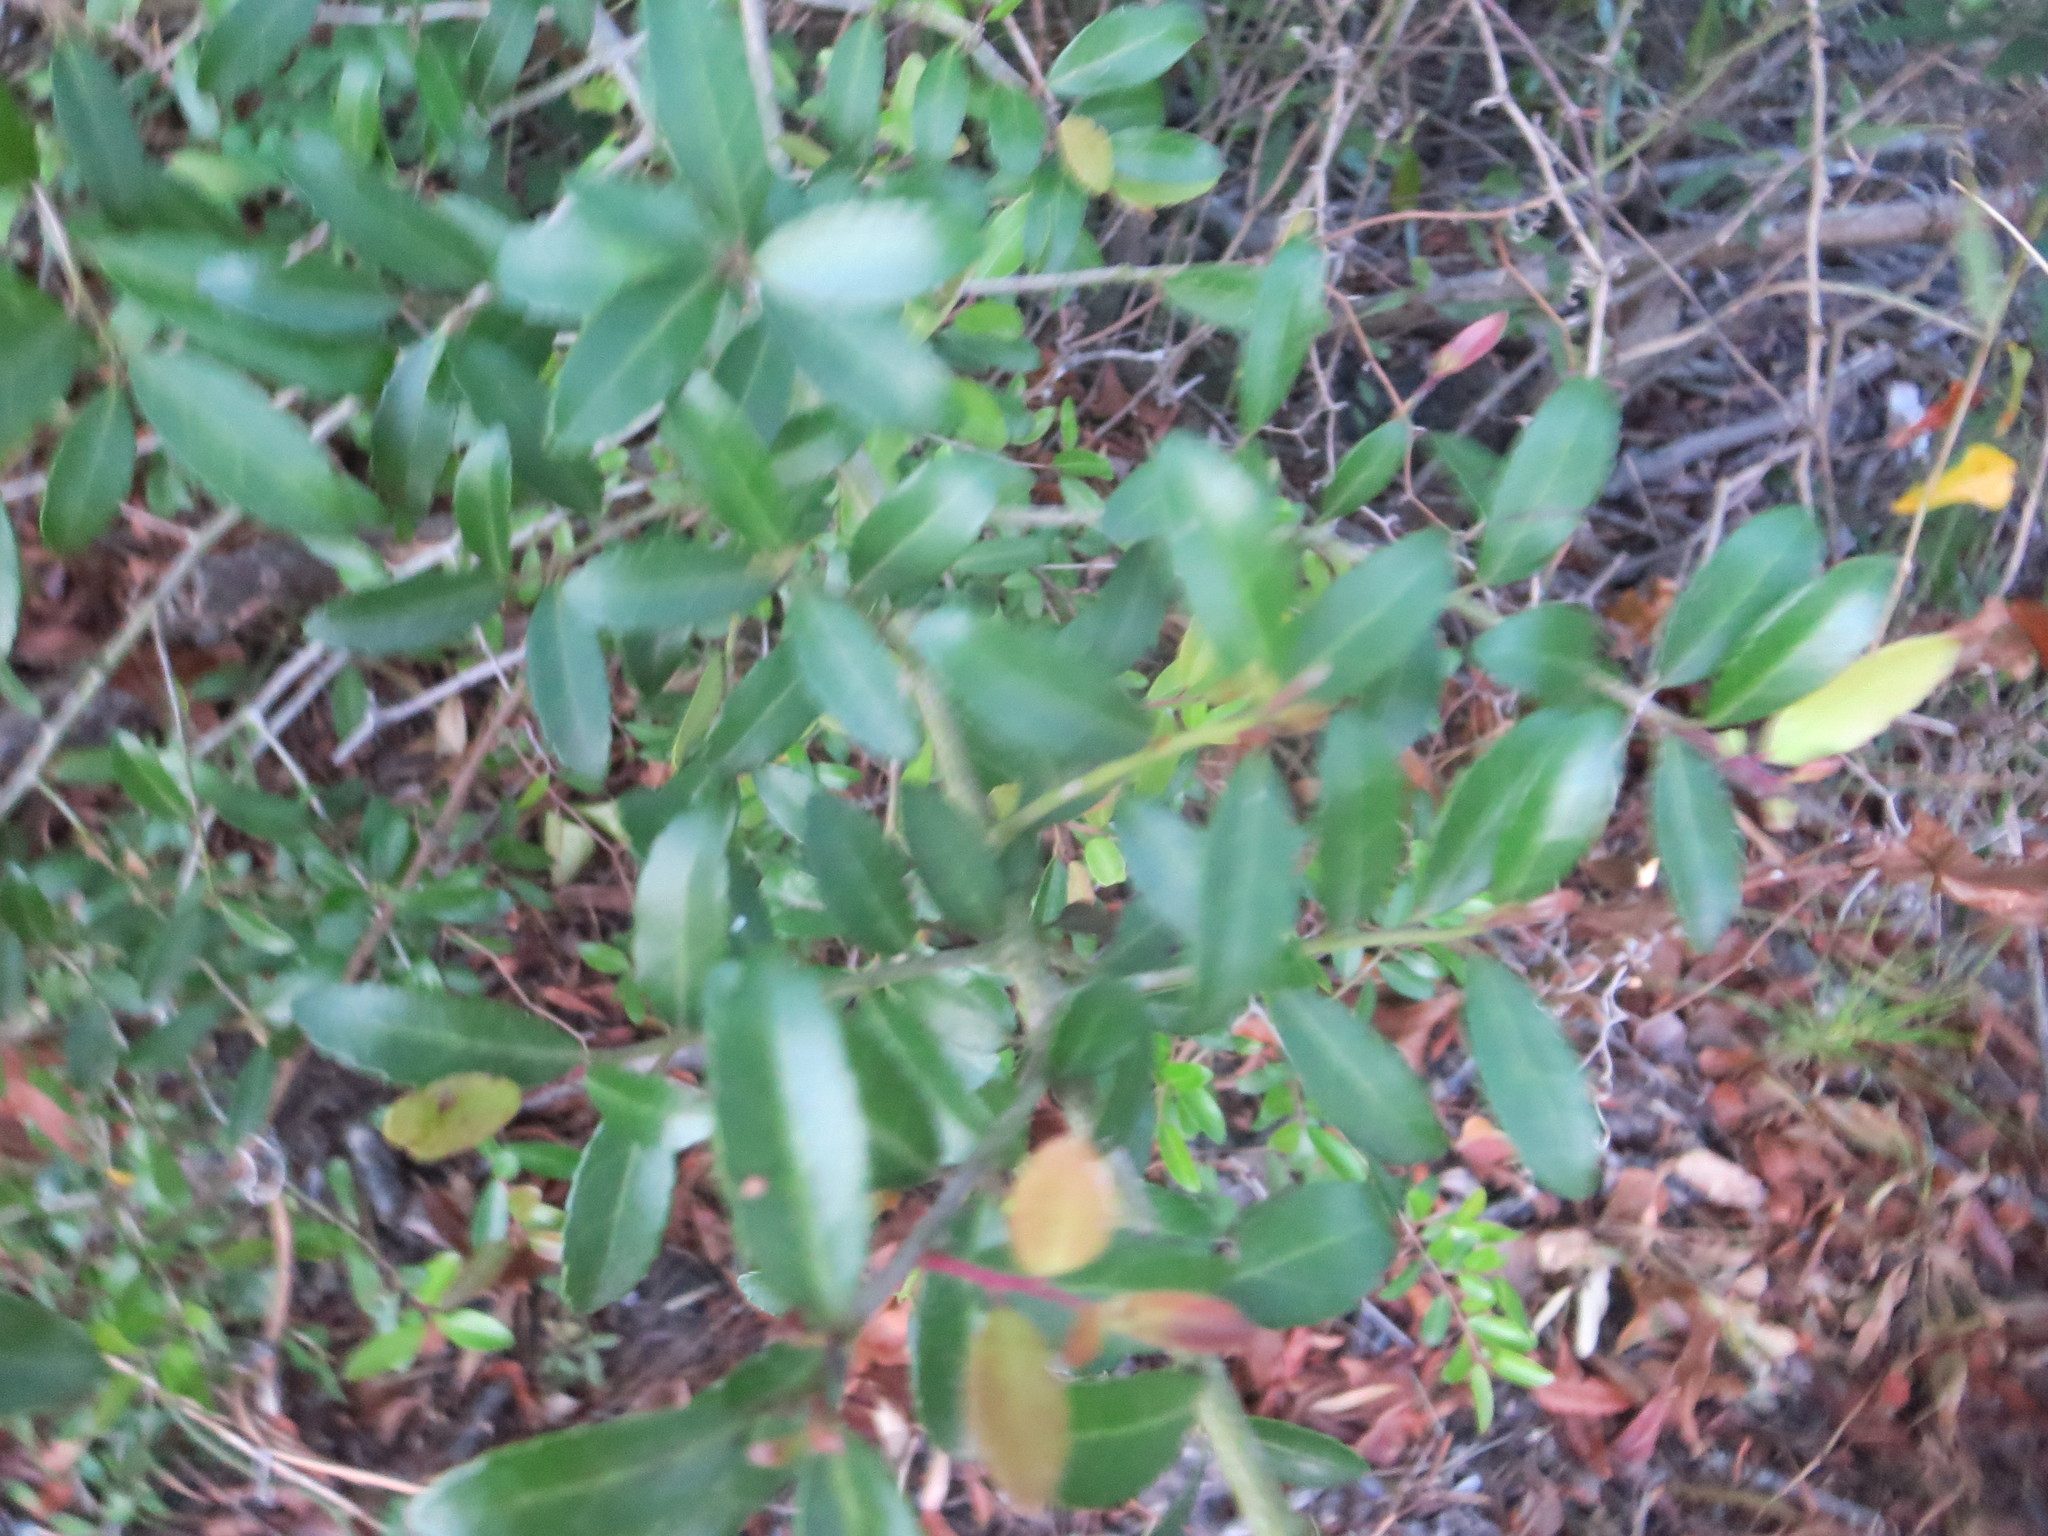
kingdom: Plantae
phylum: Tracheophyta
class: Magnoliopsida
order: Aquifoliales
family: Aquifoliaceae
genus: Ilex
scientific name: Ilex vomitoria
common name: Yaupon holly
